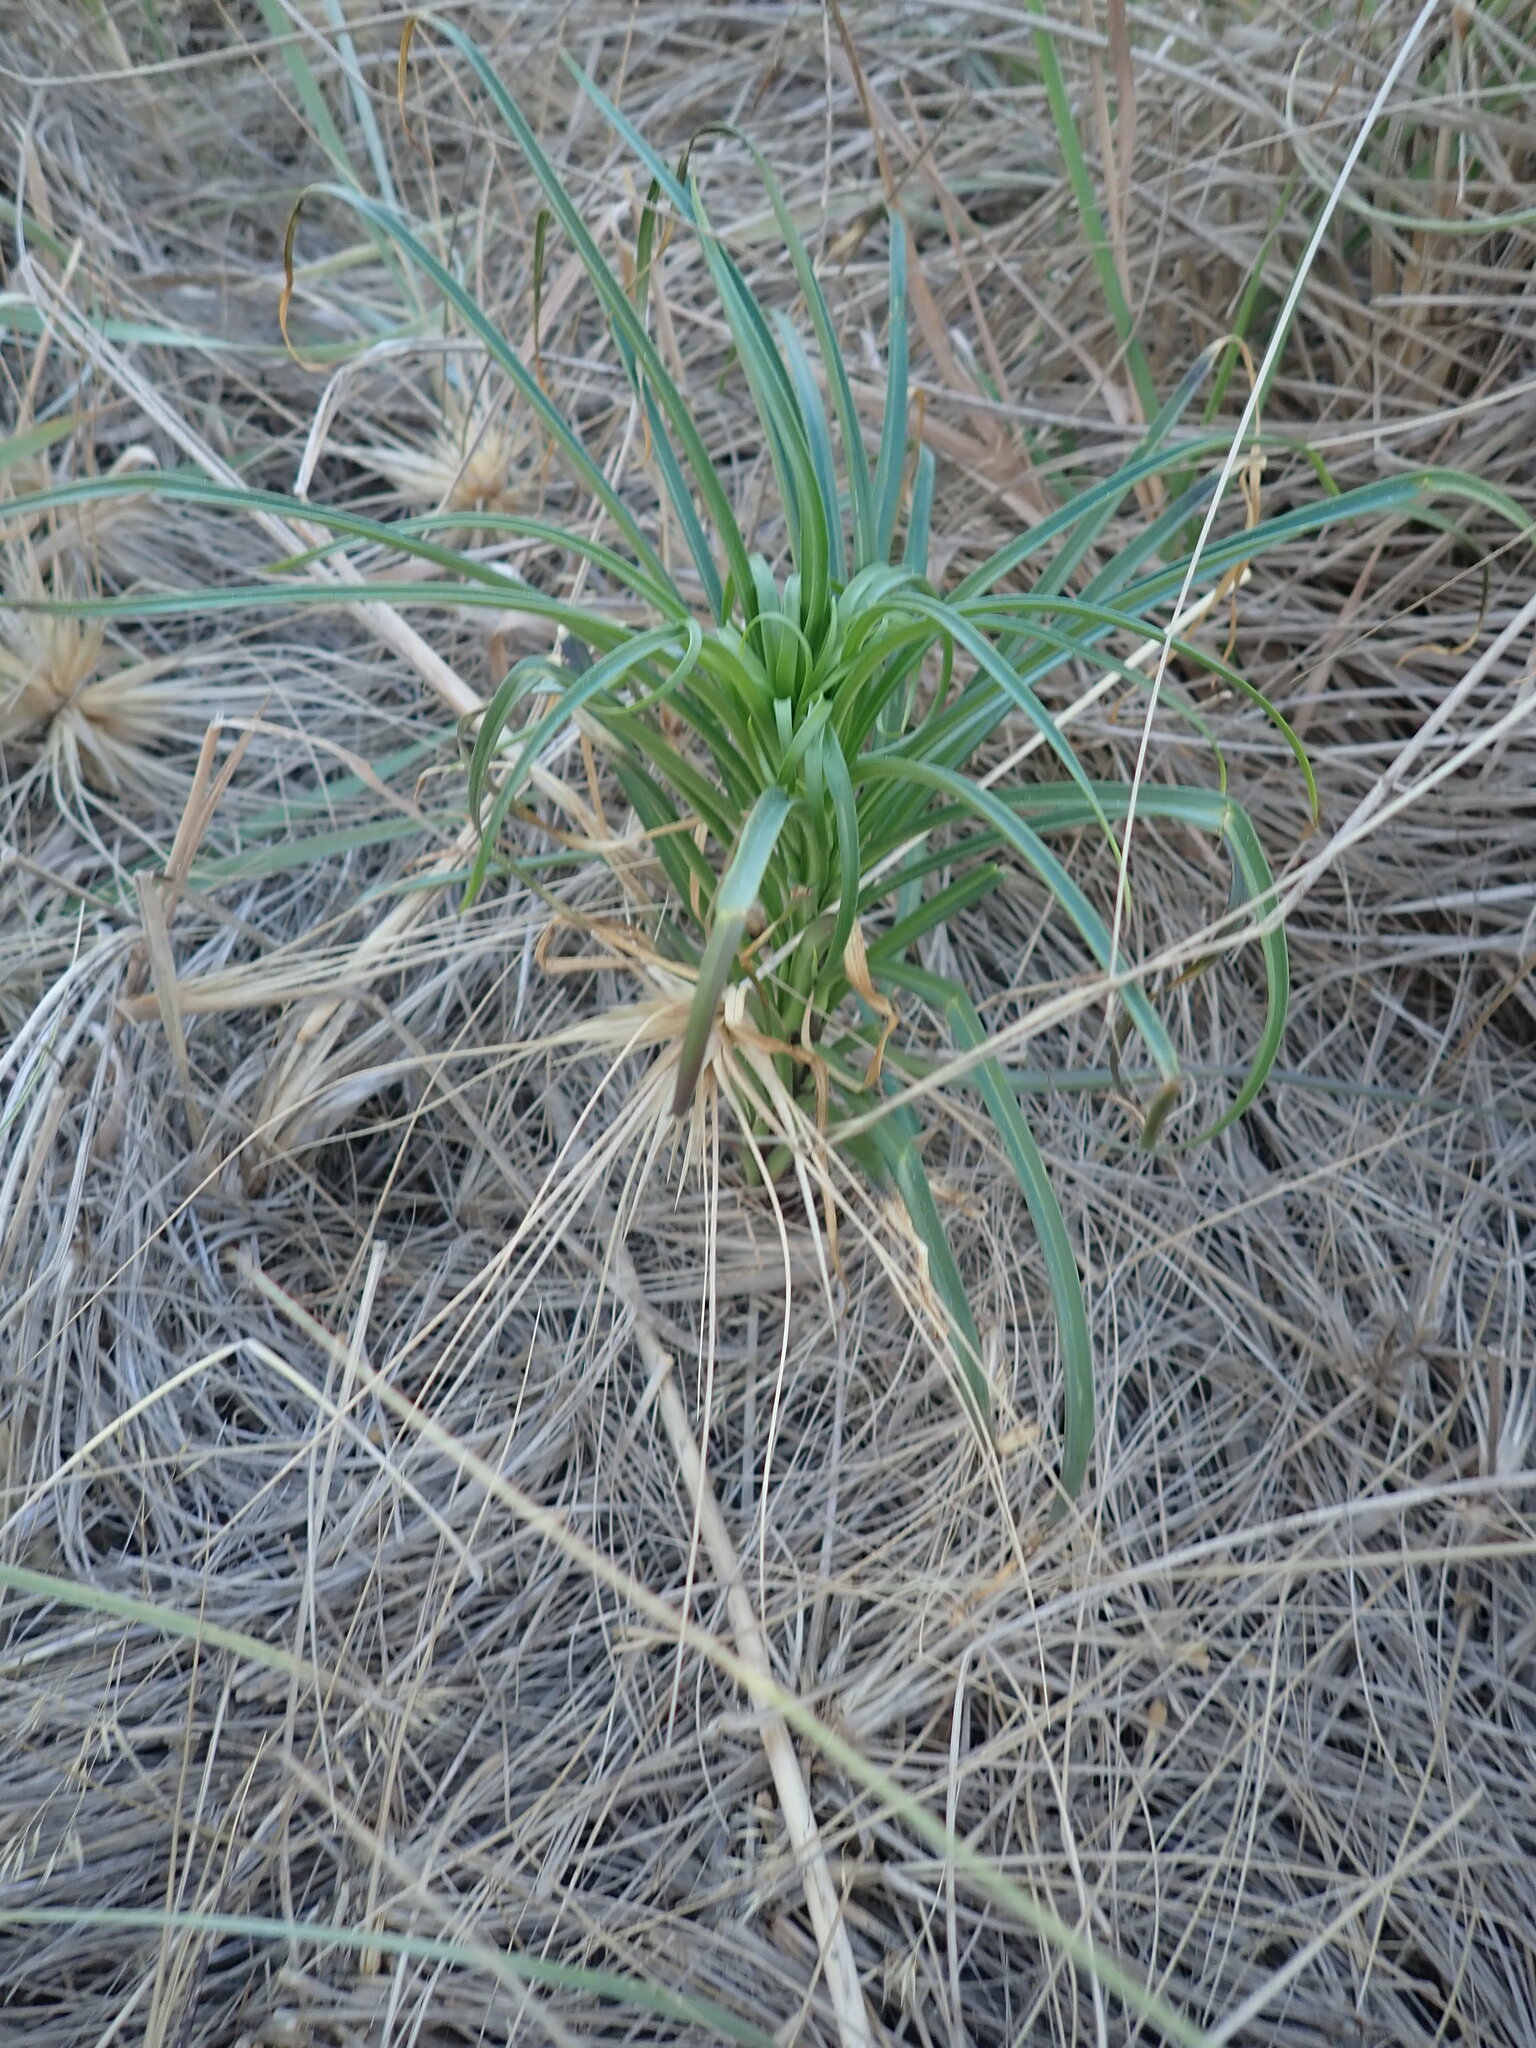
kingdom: Plantae
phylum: Tracheophyta
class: Liliopsida
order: Liliales
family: Liliaceae
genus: Lilium
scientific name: Lilium formosanum
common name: Formosa lily
